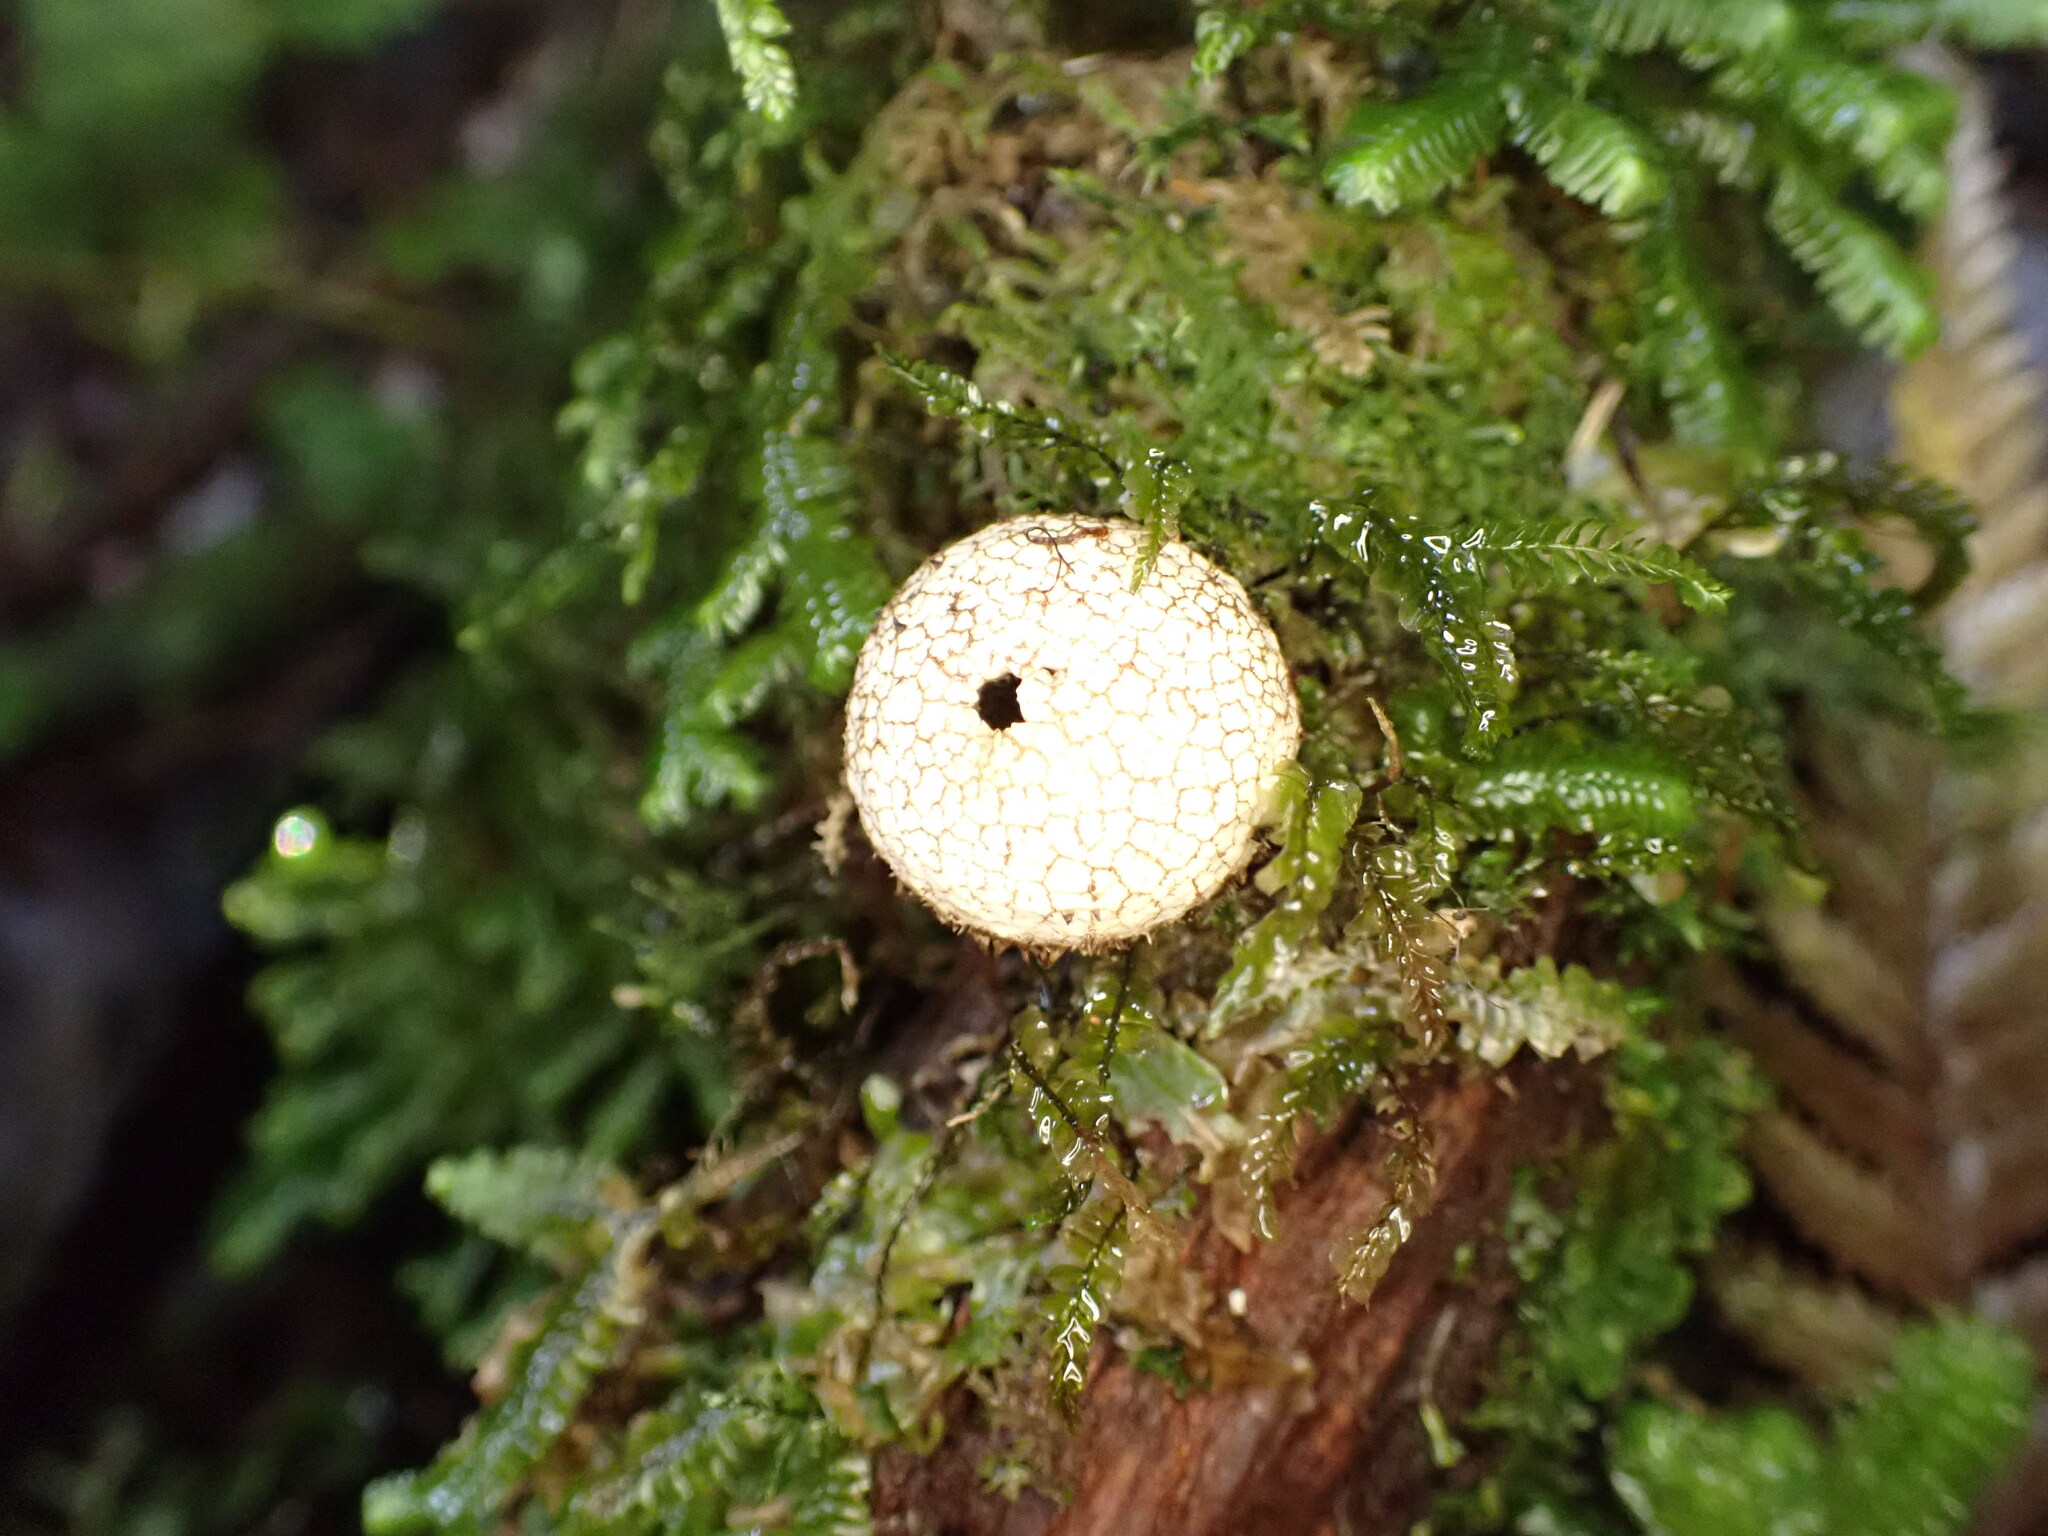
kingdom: Fungi
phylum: Basidiomycota
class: Agaricomycetes
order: Agaricales
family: Lycoperdaceae
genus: Lycoperdon
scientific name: Lycoperdon compactum
